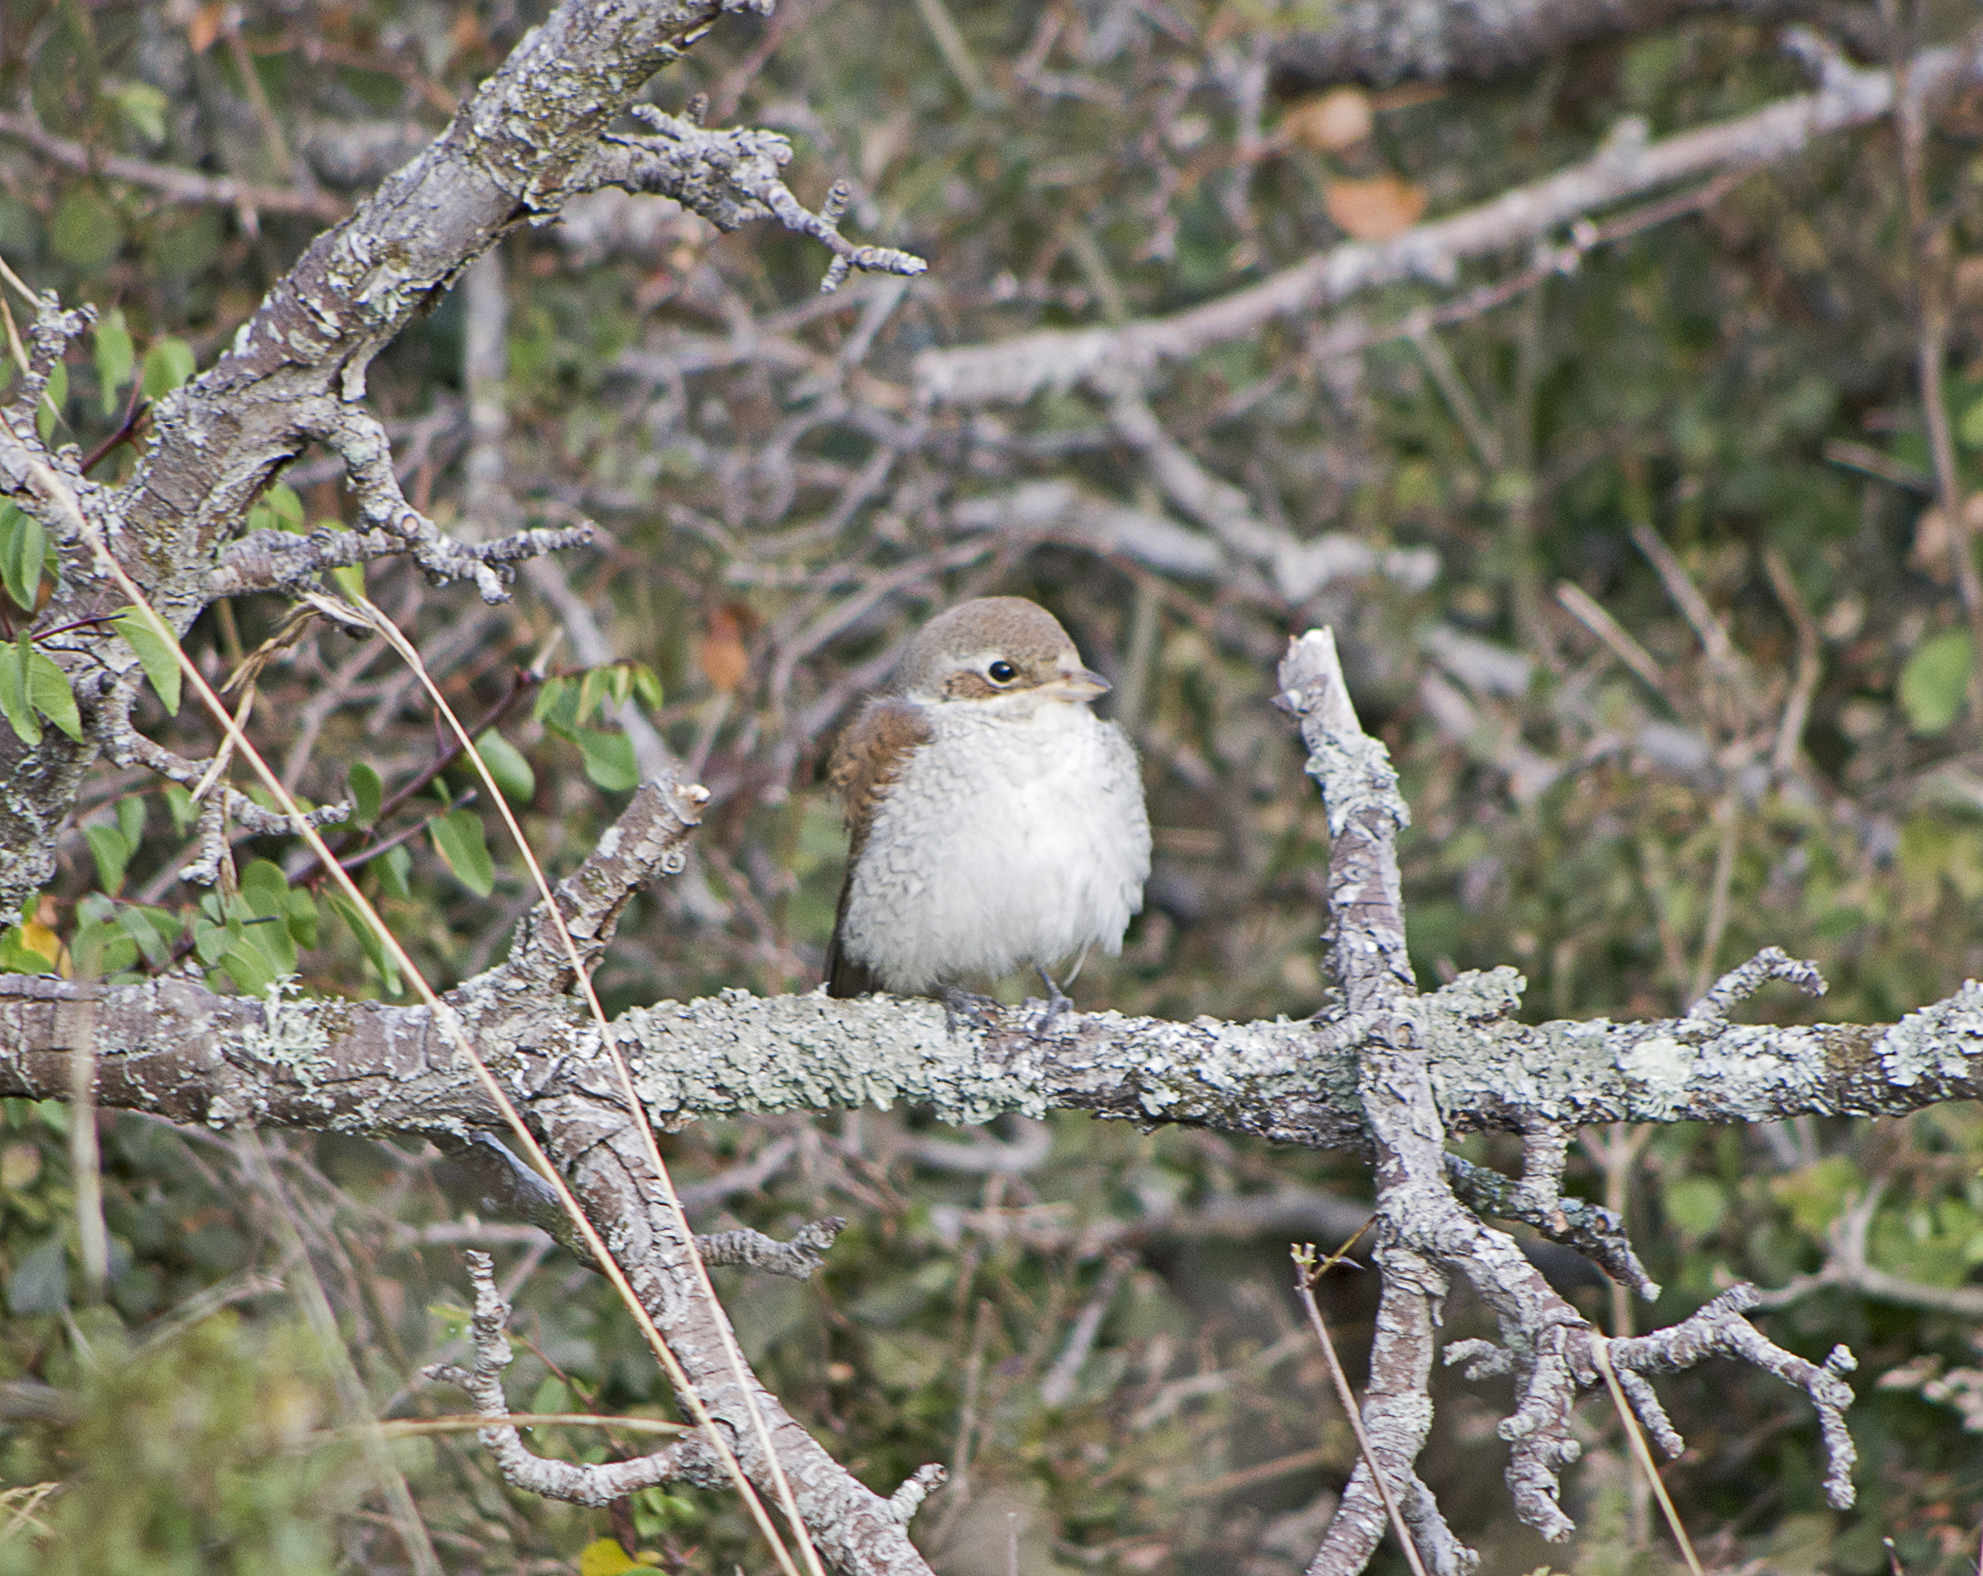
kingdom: Animalia
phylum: Chordata
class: Aves
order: Passeriformes
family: Laniidae
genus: Lanius
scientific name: Lanius collurio
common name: Red-backed shrike
